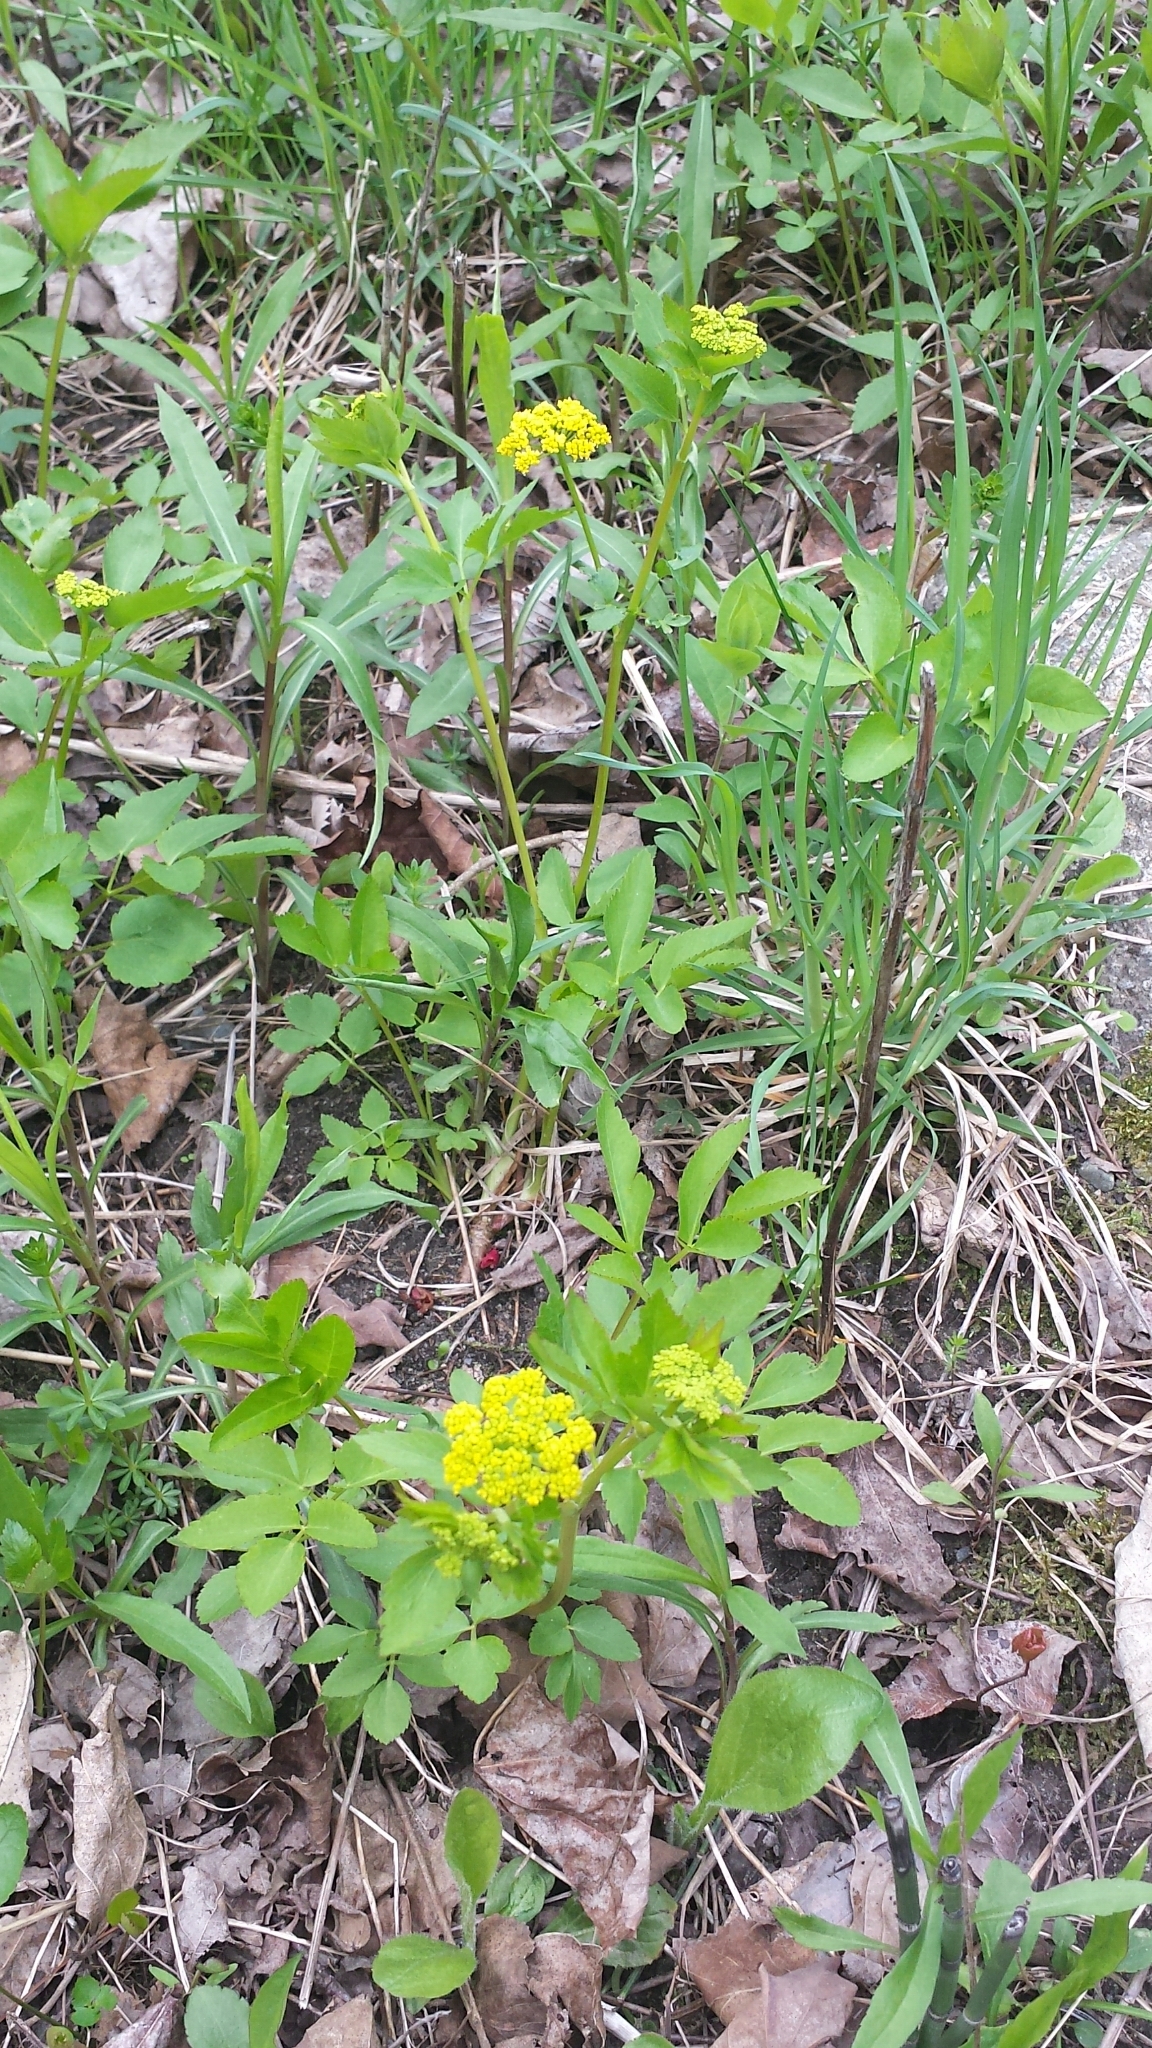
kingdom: Plantae
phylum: Tracheophyta
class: Magnoliopsida
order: Apiales
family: Apiaceae
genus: Zizia
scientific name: Zizia aurea
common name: Golden alexanders
